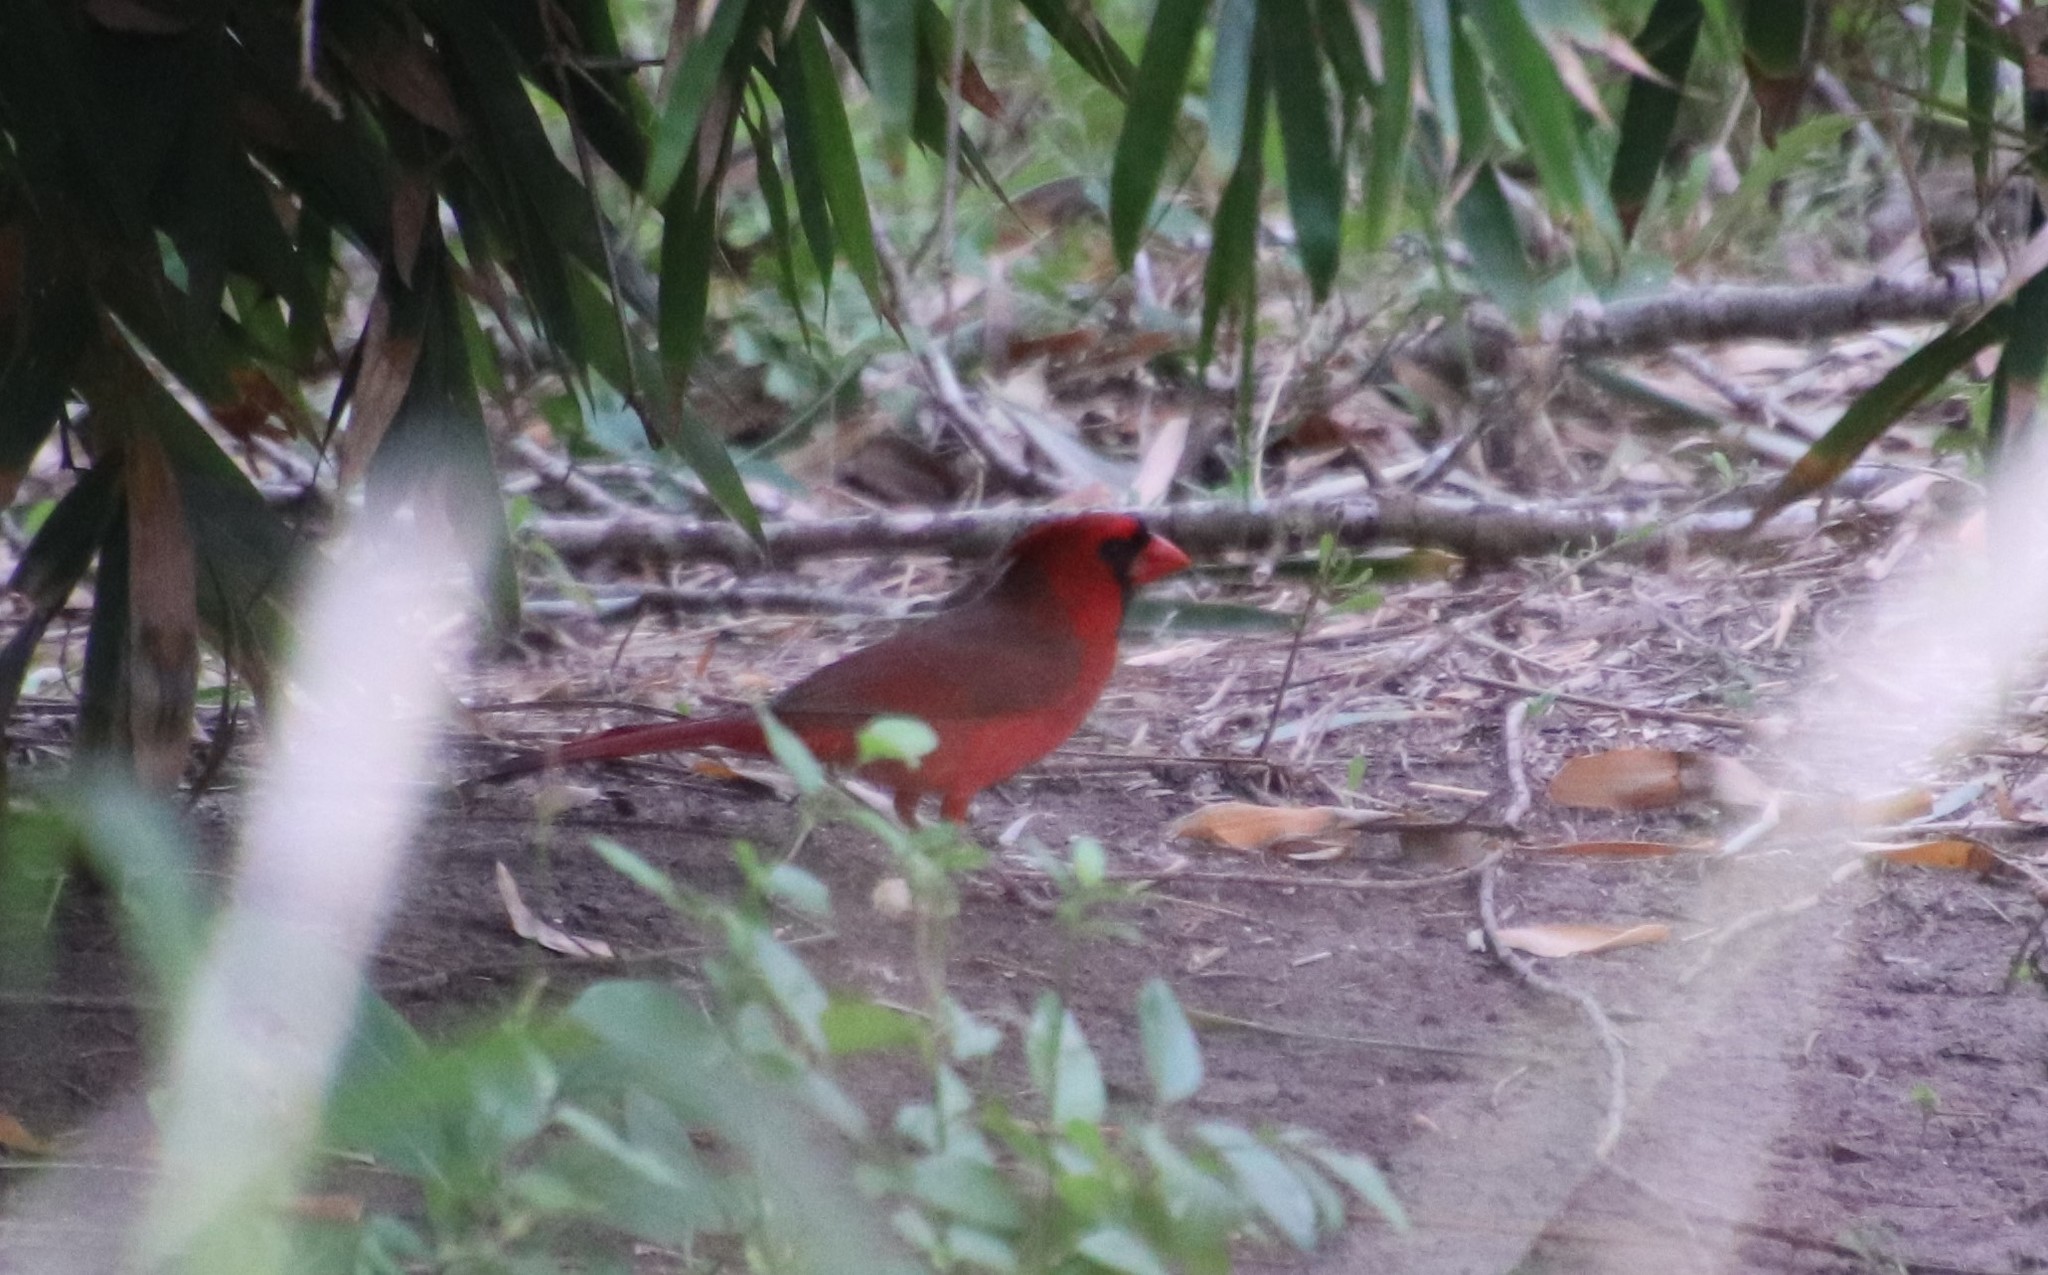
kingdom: Animalia
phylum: Chordata
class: Aves
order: Passeriformes
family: Cardinalidae
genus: Cardinalis
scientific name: Cardinalis cardinalis
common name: Northern cardinal
